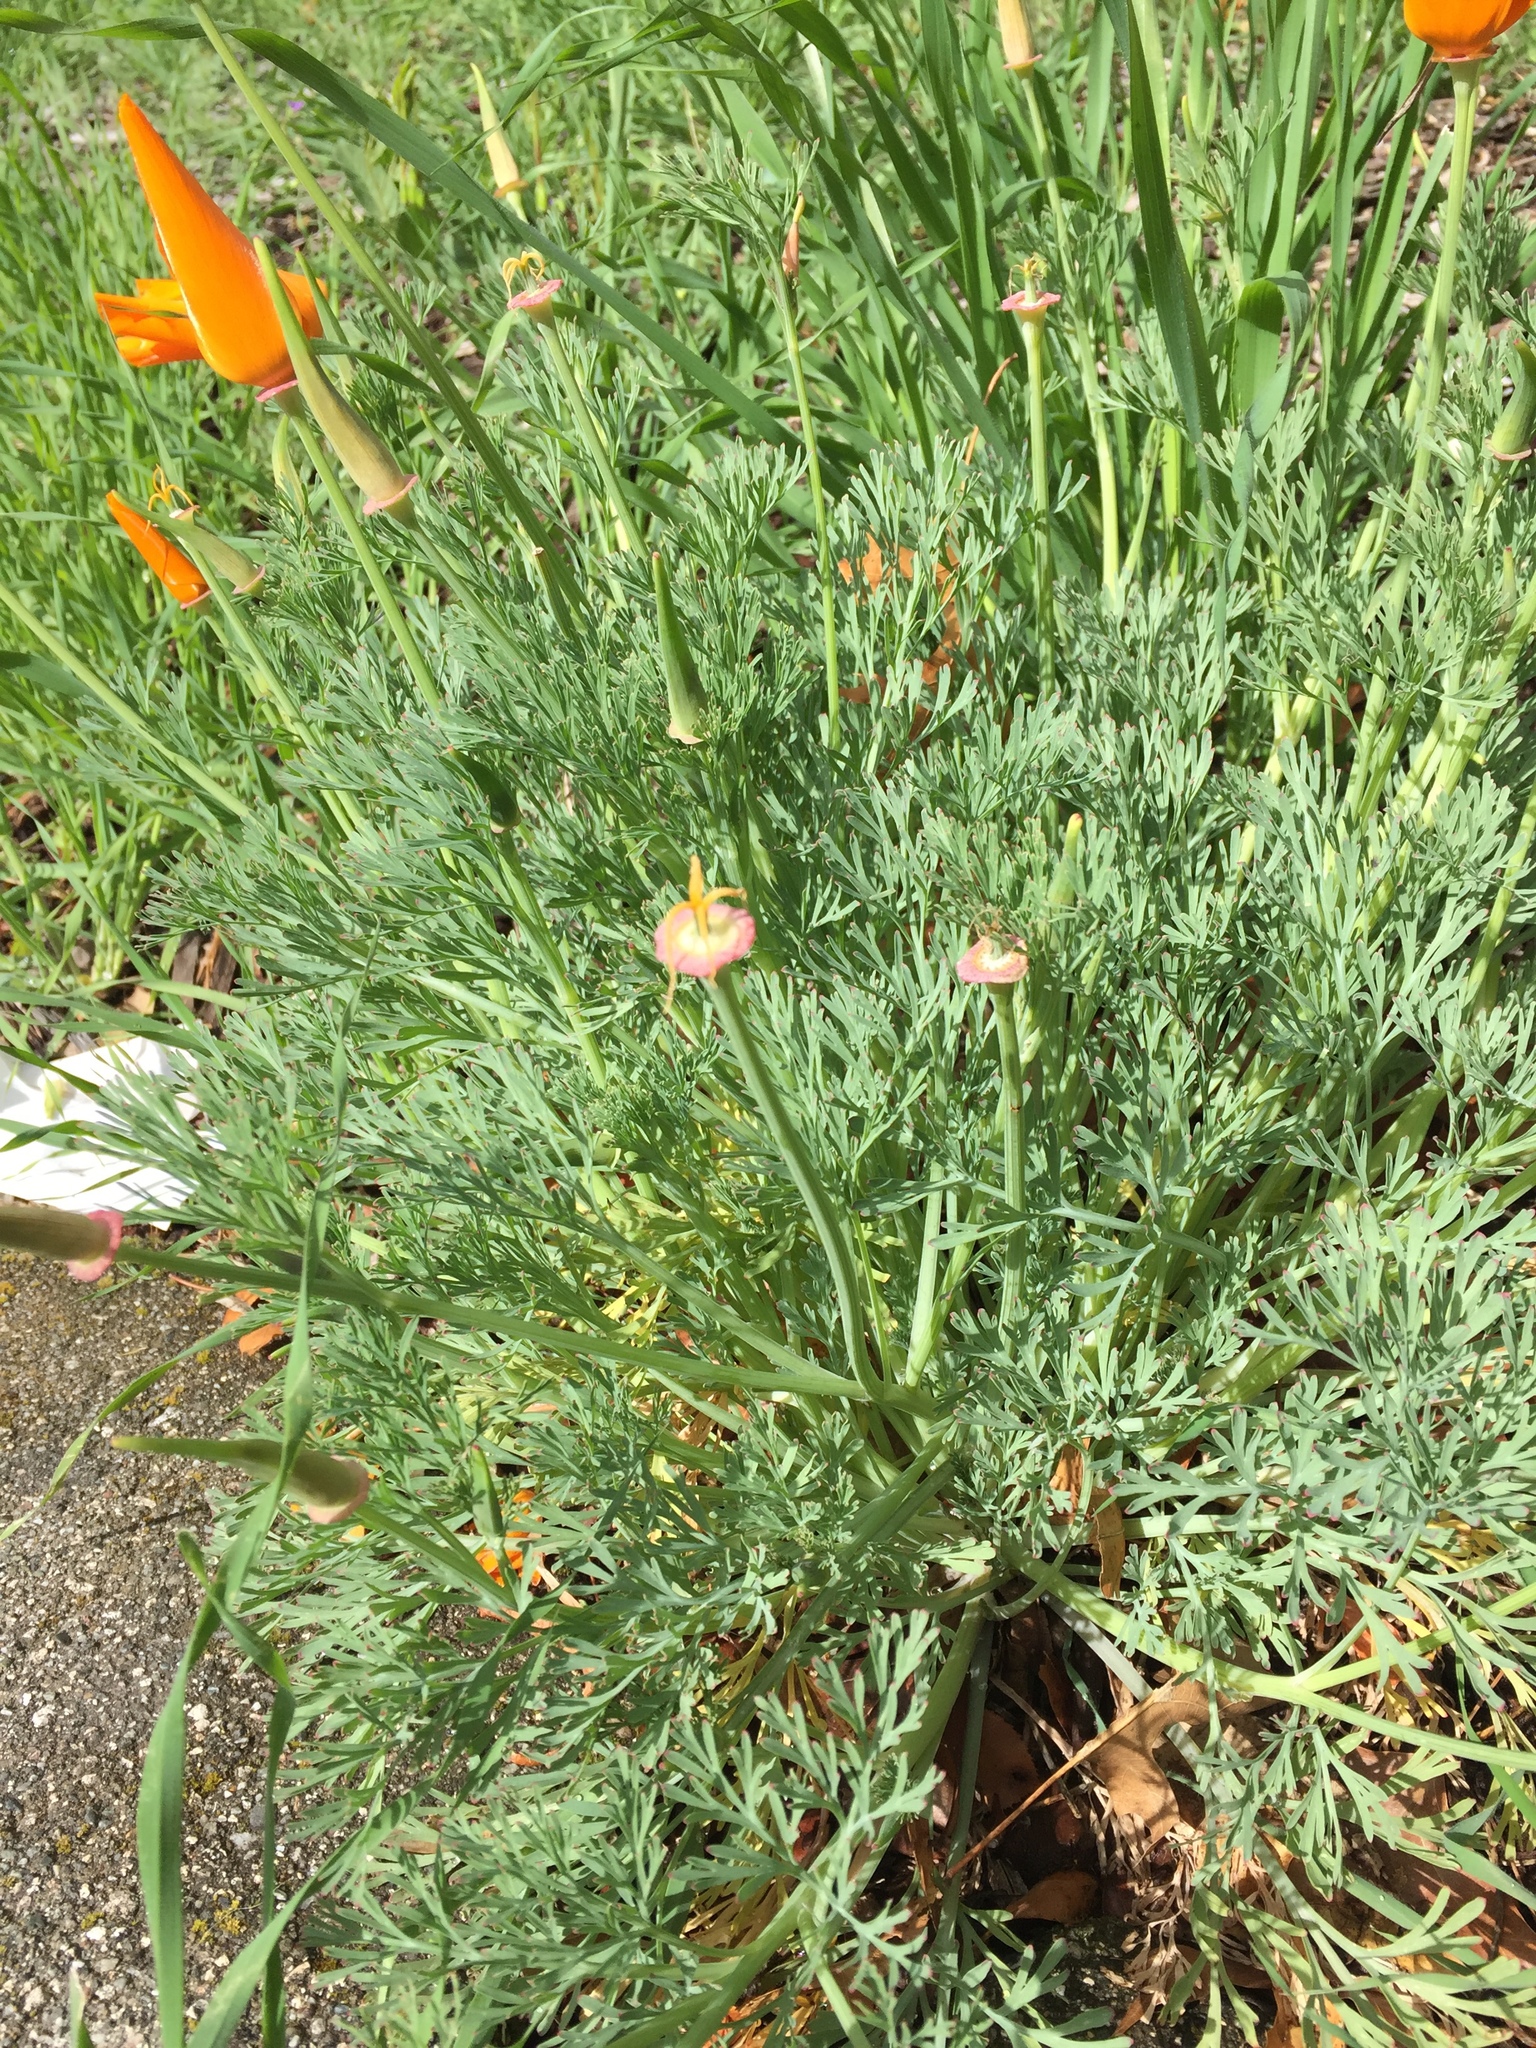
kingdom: Plantae
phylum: Tracheophyta
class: Magnoliopsida
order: Ranunculales
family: Papaveraceae
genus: Eschscholzia
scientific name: Eschscholzia californica
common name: California poppy
